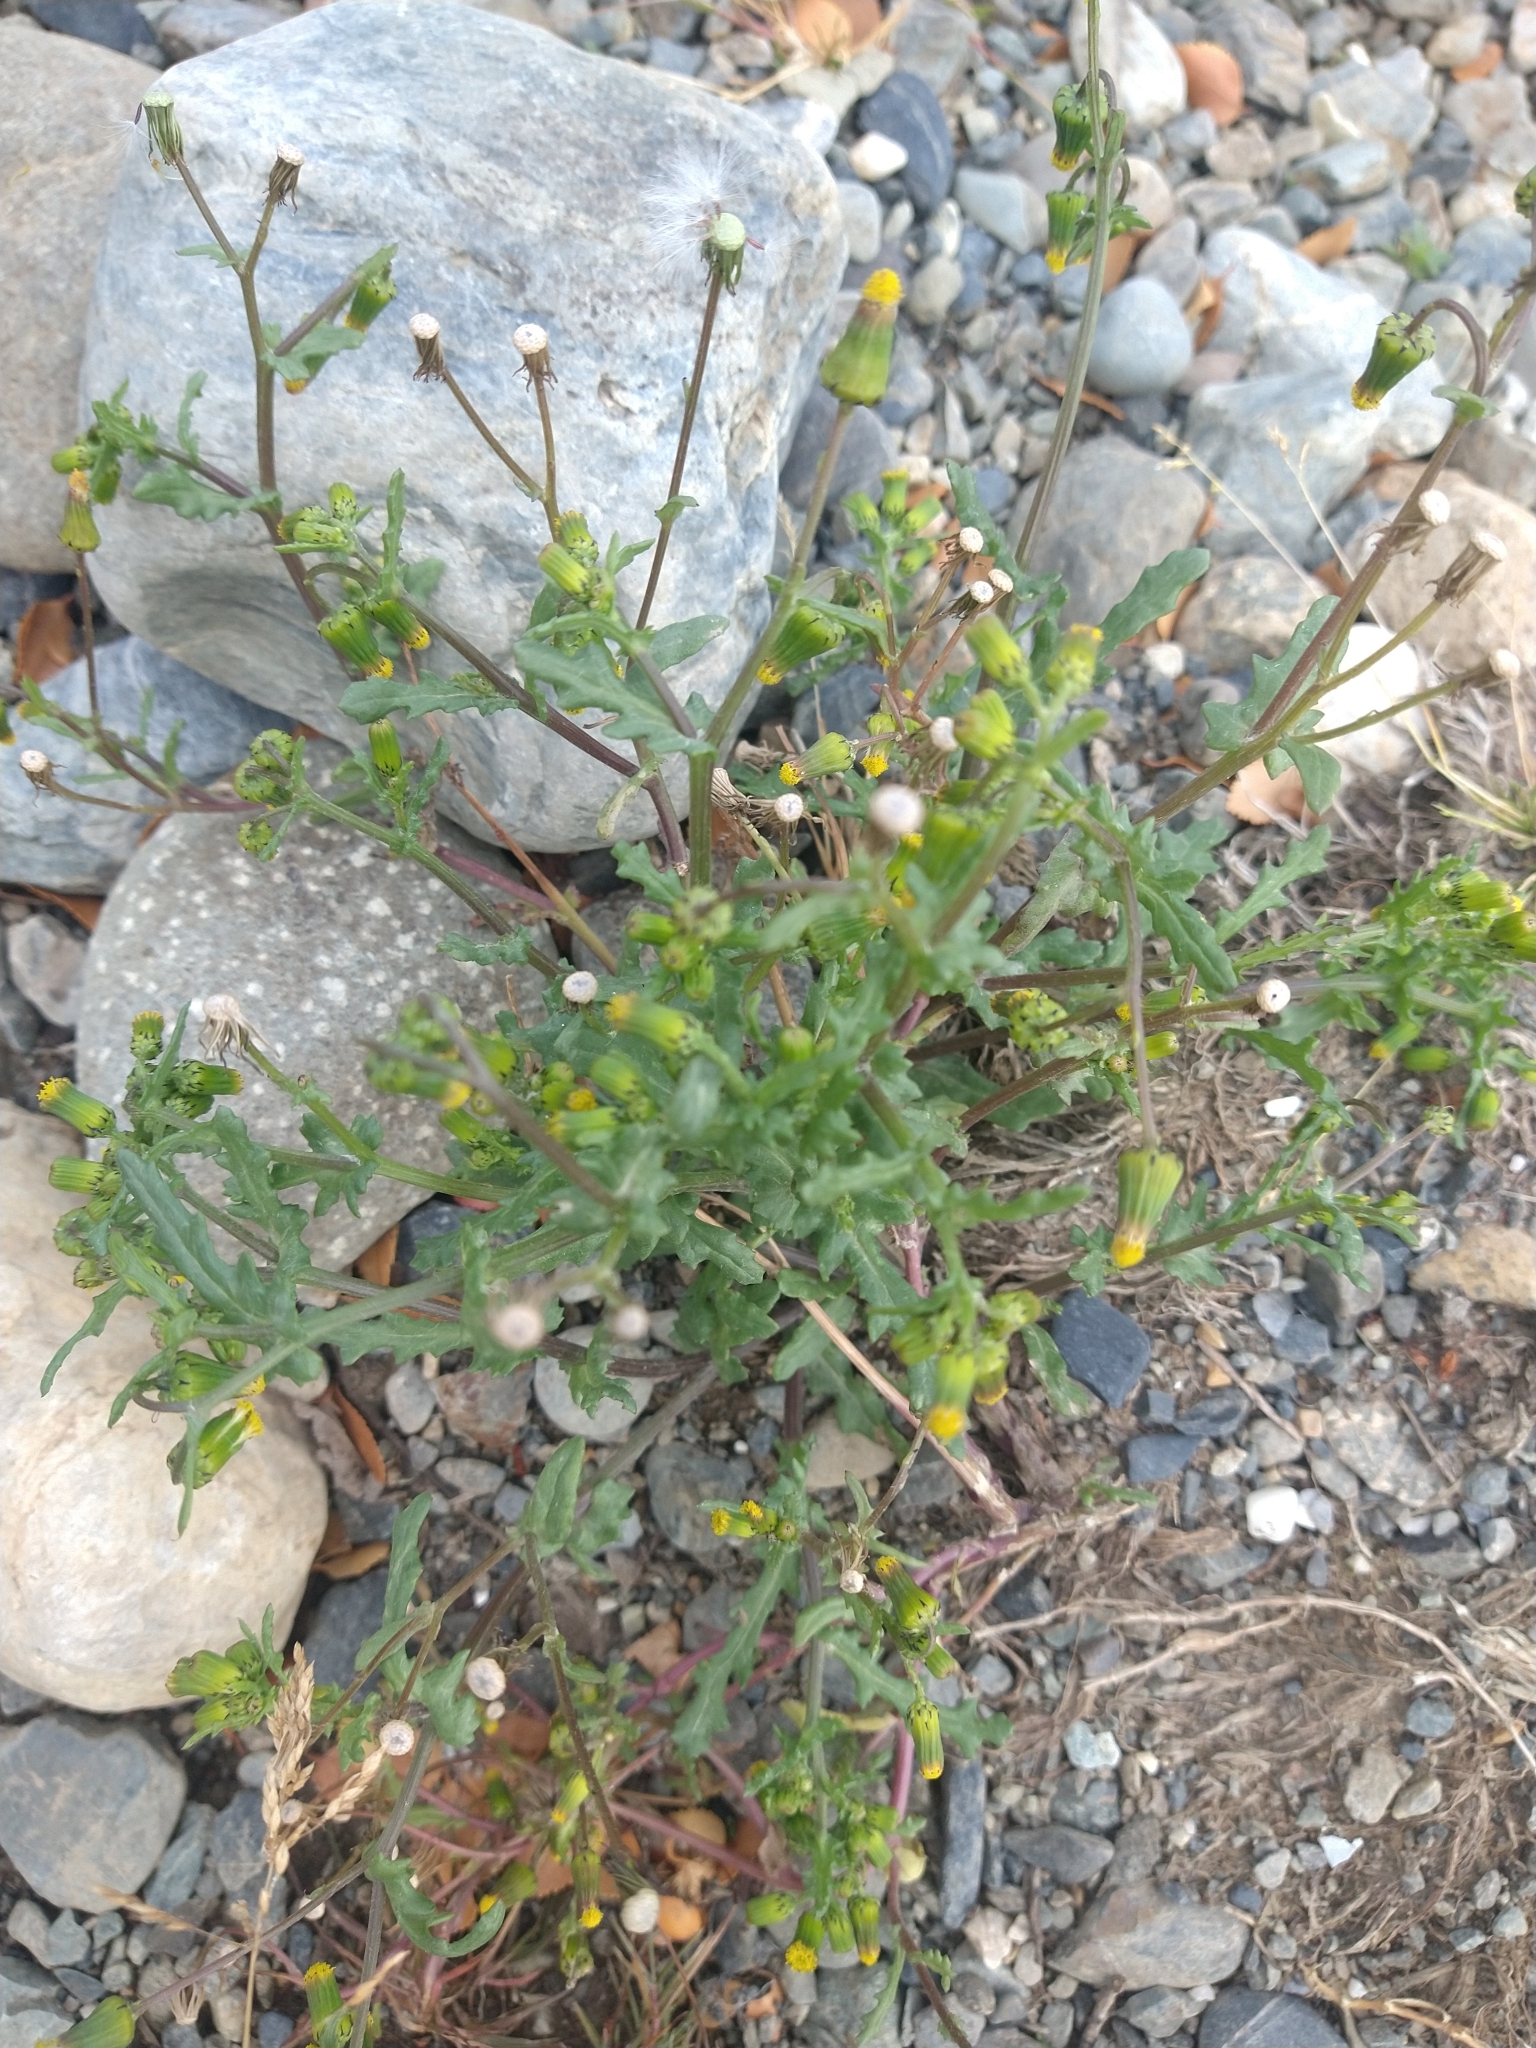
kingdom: Plantae
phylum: Tracheophyta
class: Magnoliopsida
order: Asterales
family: Asteraceae
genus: Senecio
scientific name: Senecio vulgaris
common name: Old-man-in-the-spring
